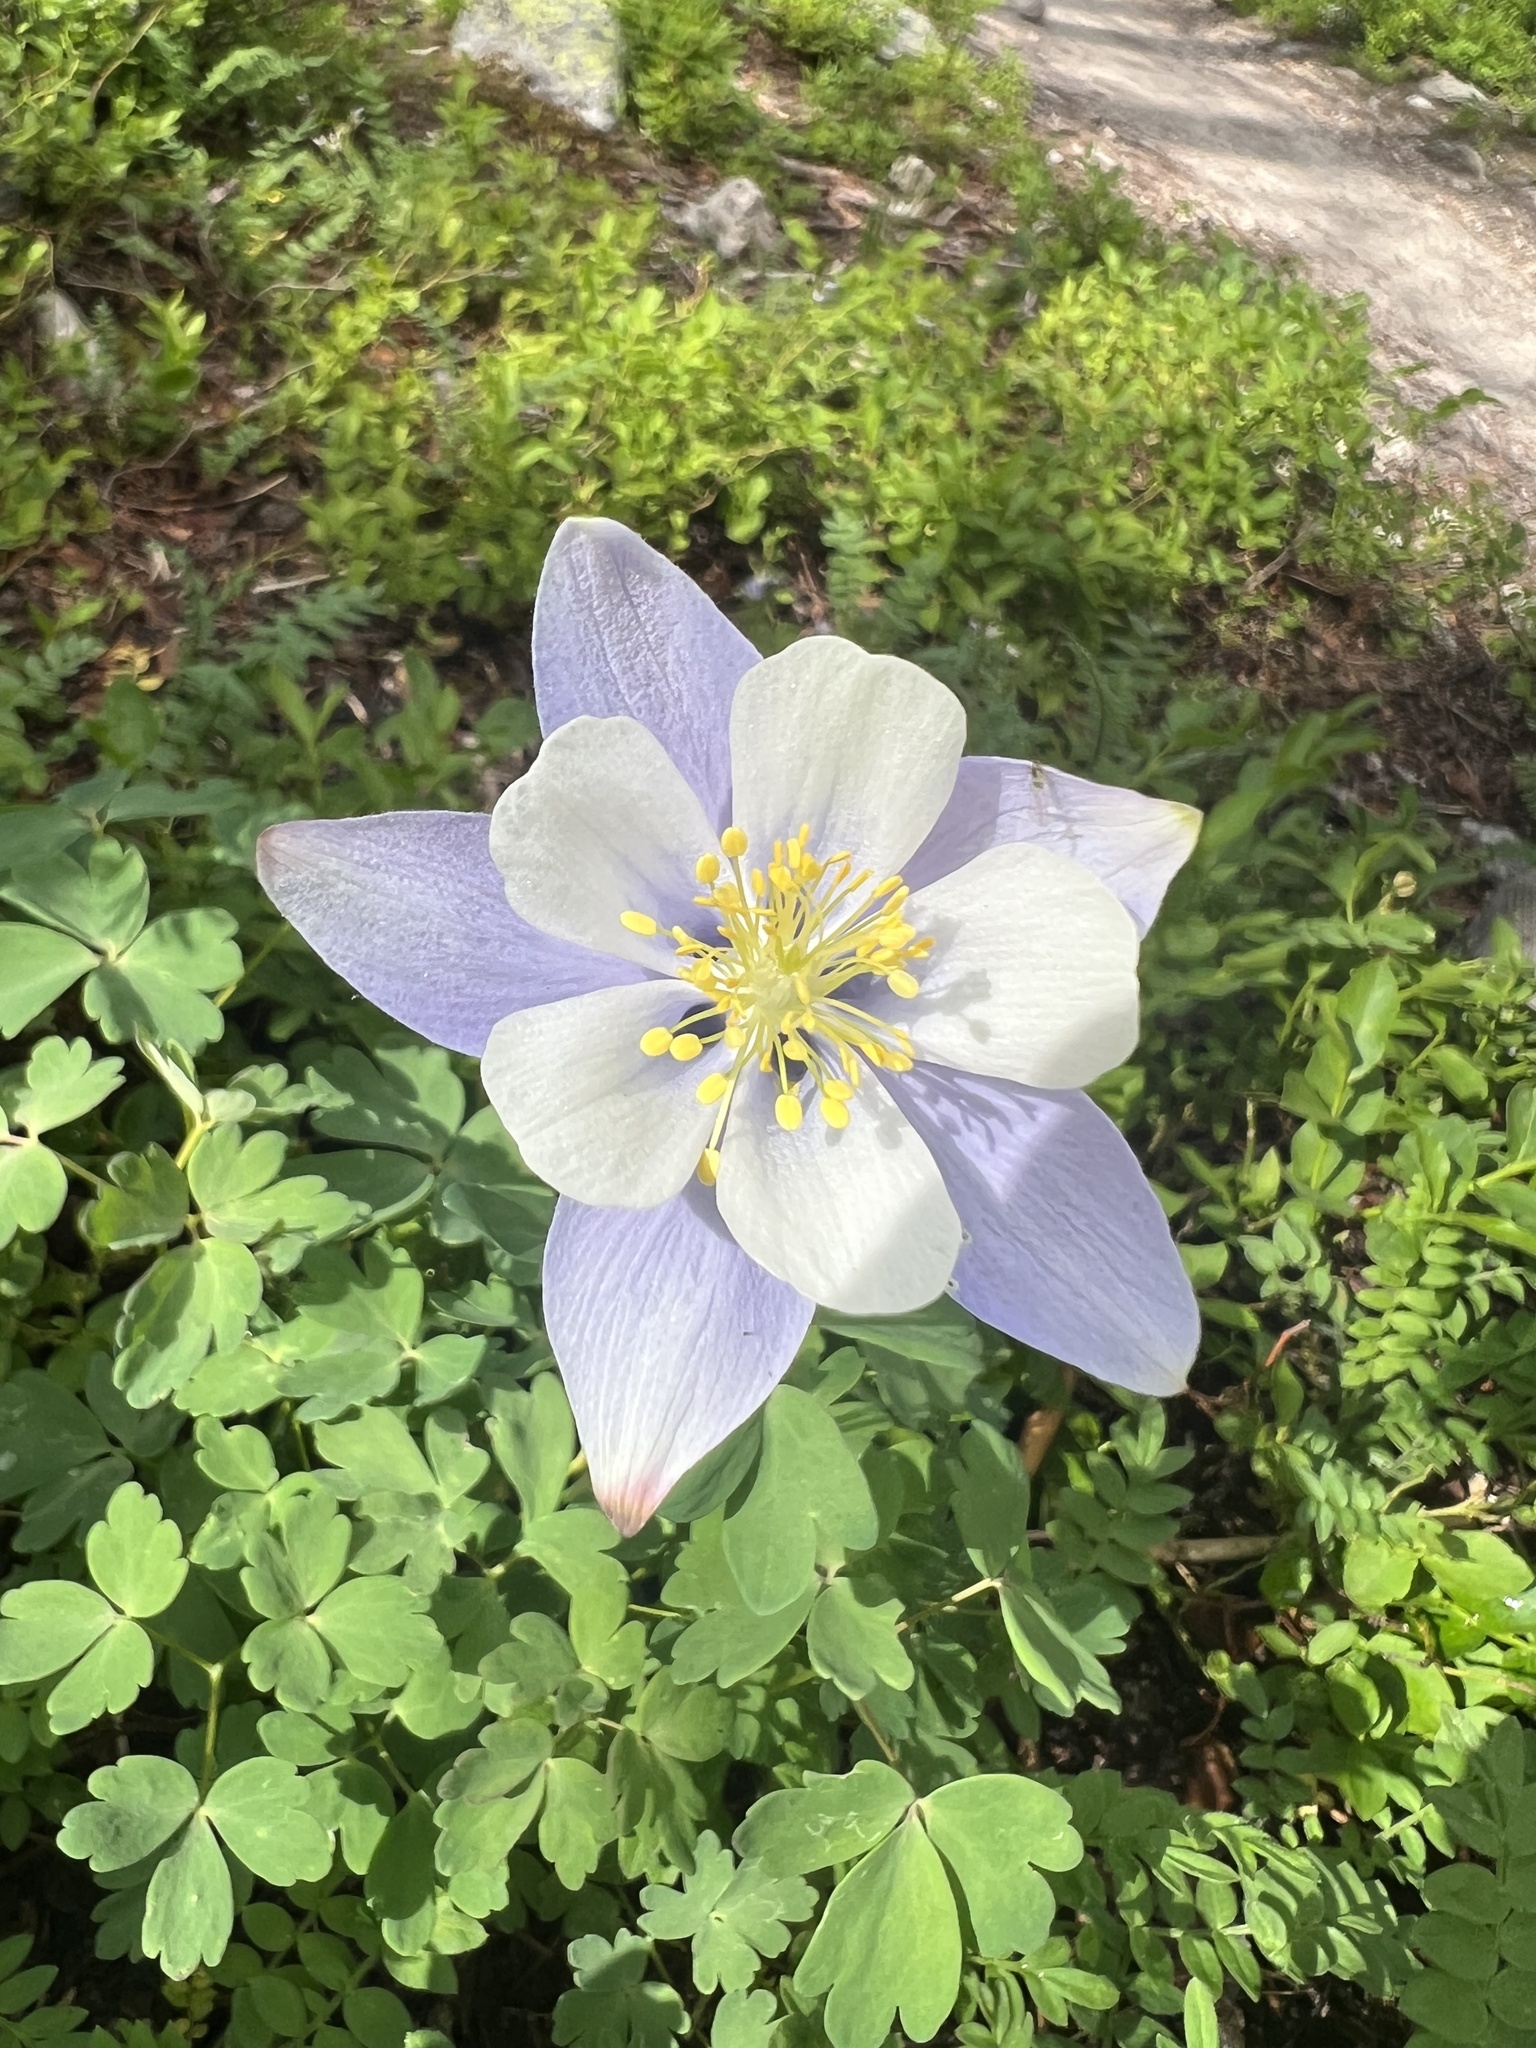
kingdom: Plantae
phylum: Tracheophyta
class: Magnoliopsida
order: Ranunculales
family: Ranunculaceae
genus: Aquilegia
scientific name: Aquilegia coerulea
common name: Rocky mountain columbine
